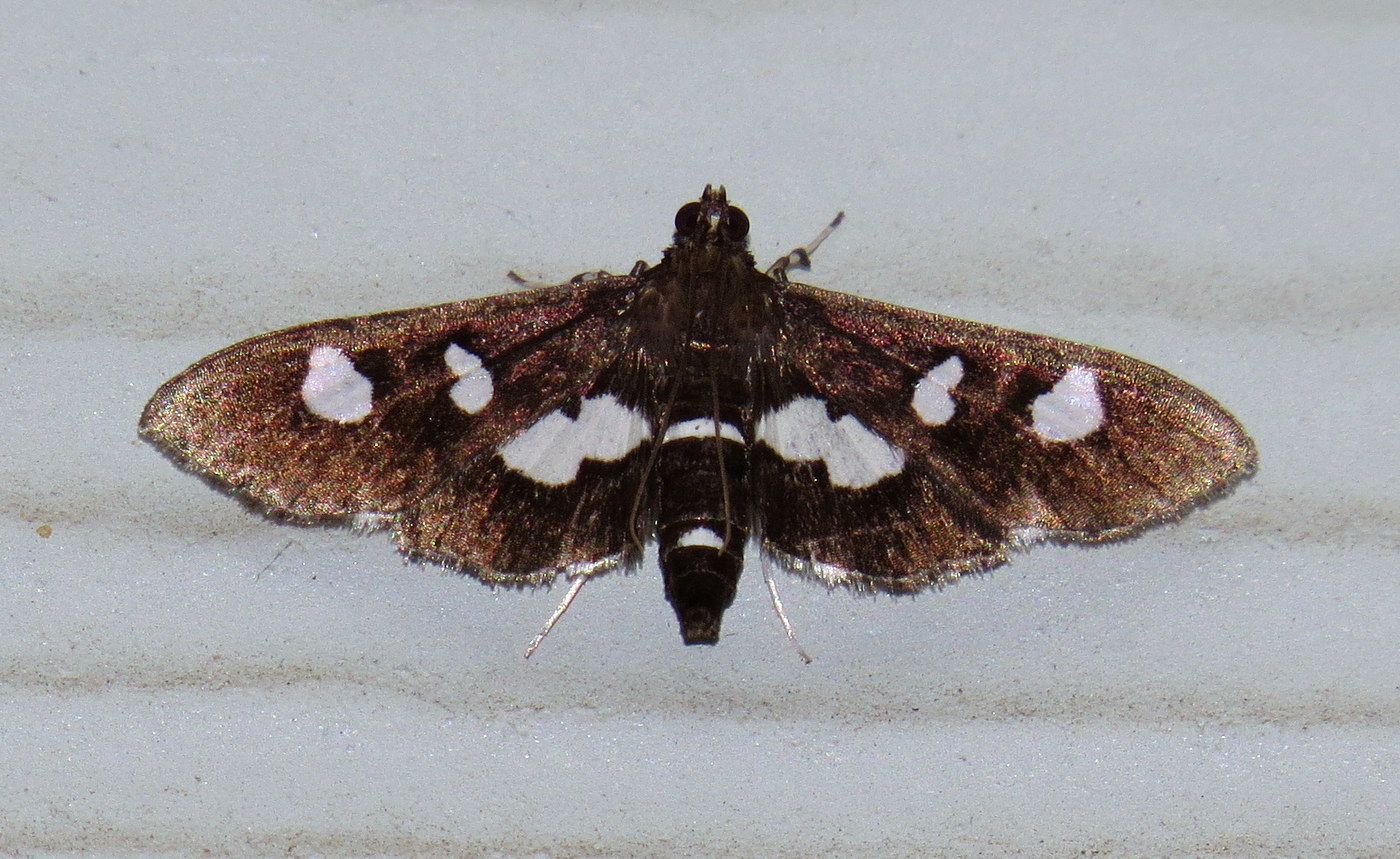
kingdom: Animalia
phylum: Arthropoda
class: Insecta
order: Lepidoptera
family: Crambidae
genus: Desmia
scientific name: Desmia
